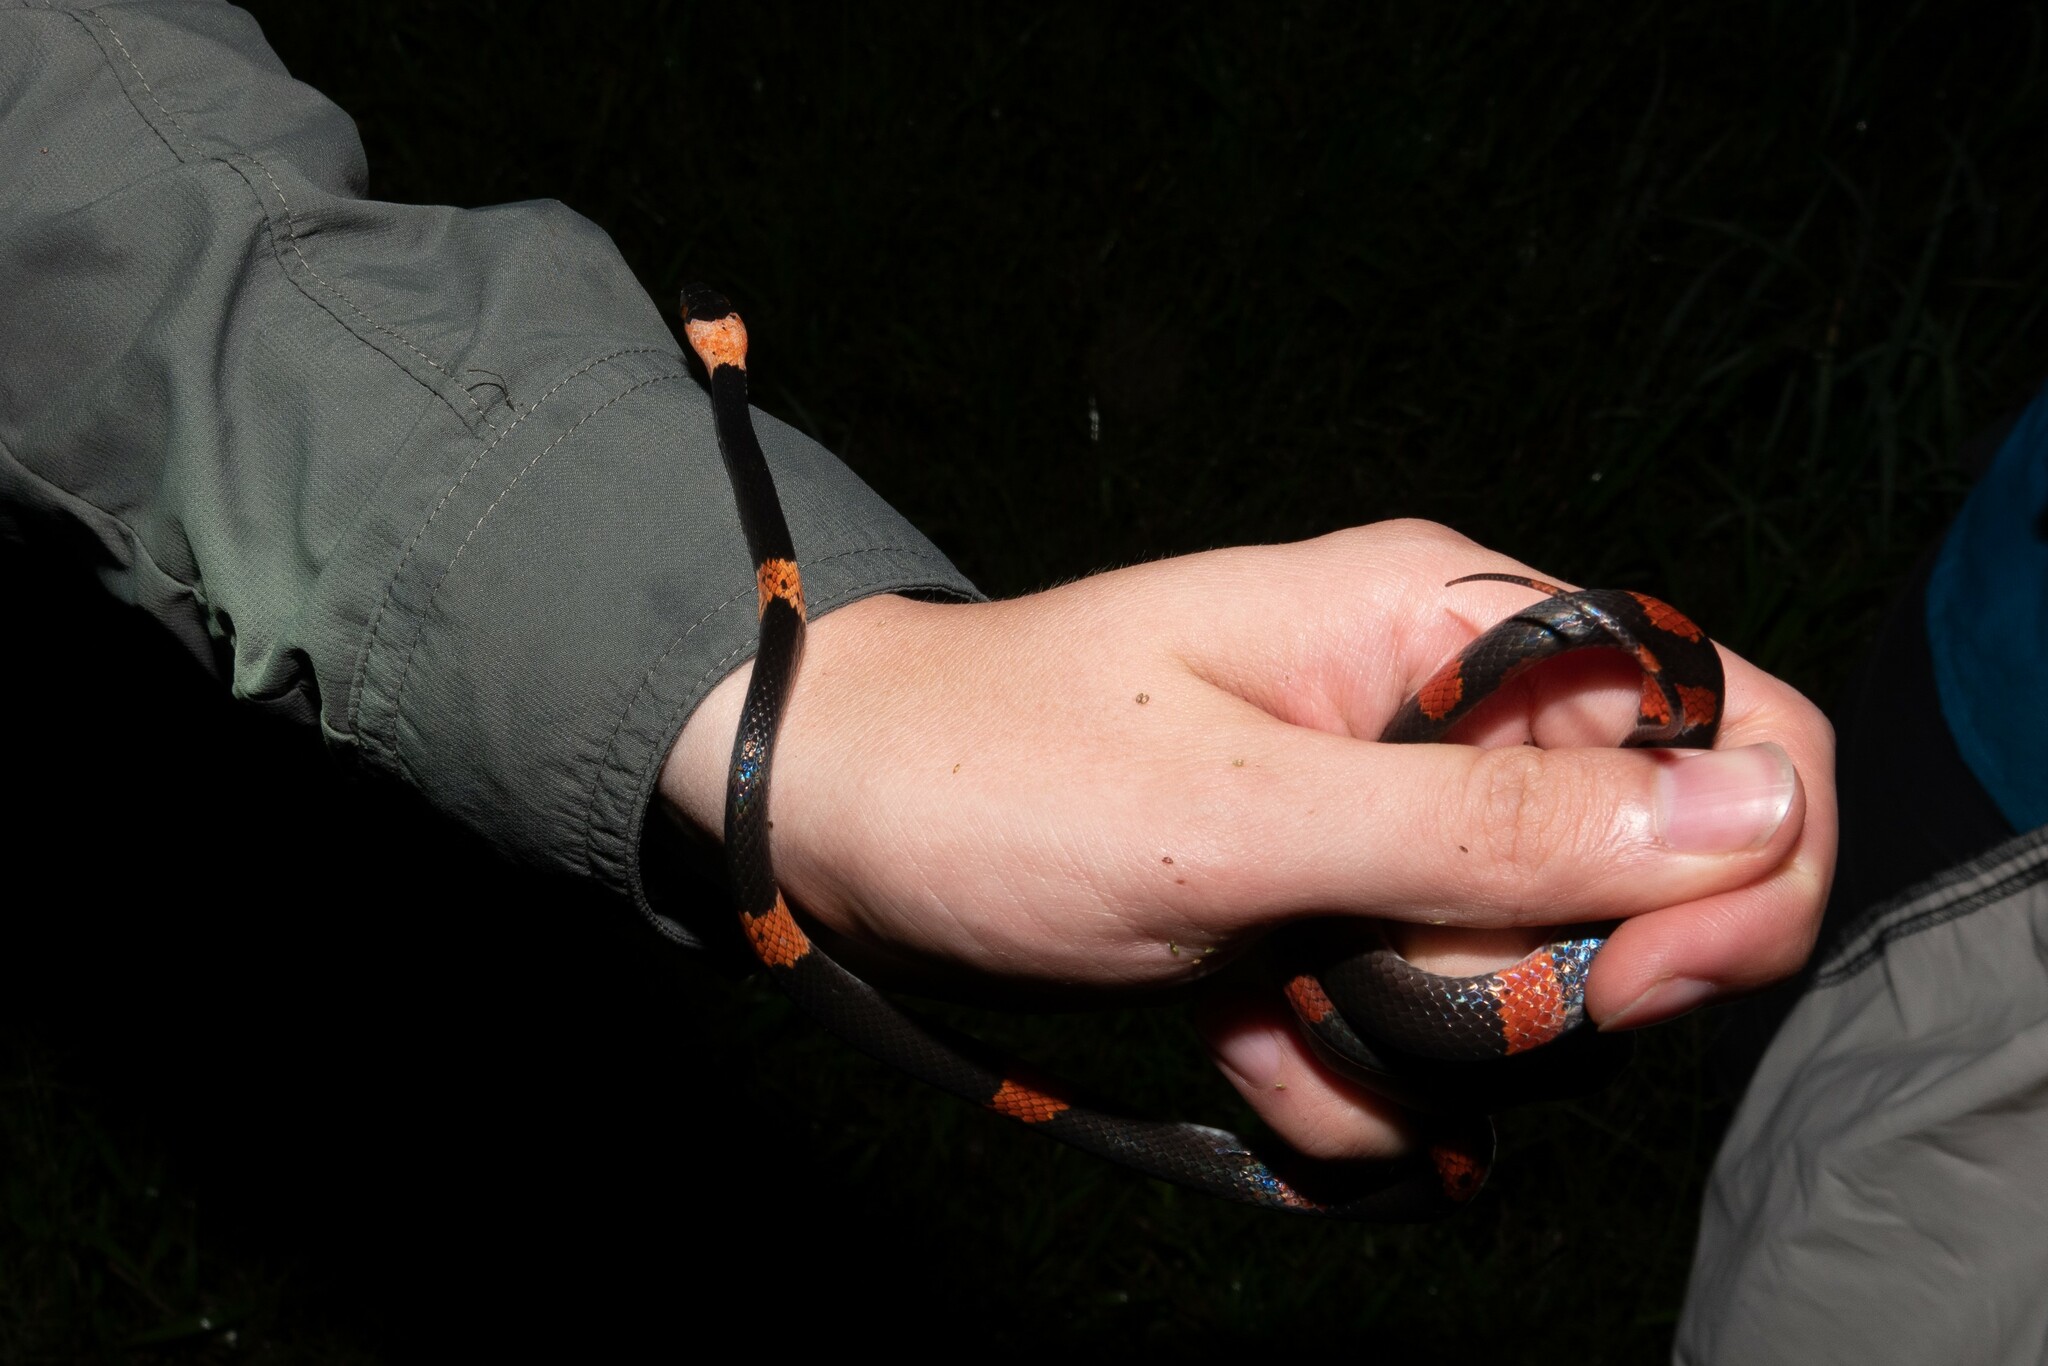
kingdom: Animalia
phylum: Chordata
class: Squamata
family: Colubridae
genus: Oxyrhopus
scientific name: Oxyrhopus petolarius
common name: Forest flame snake
